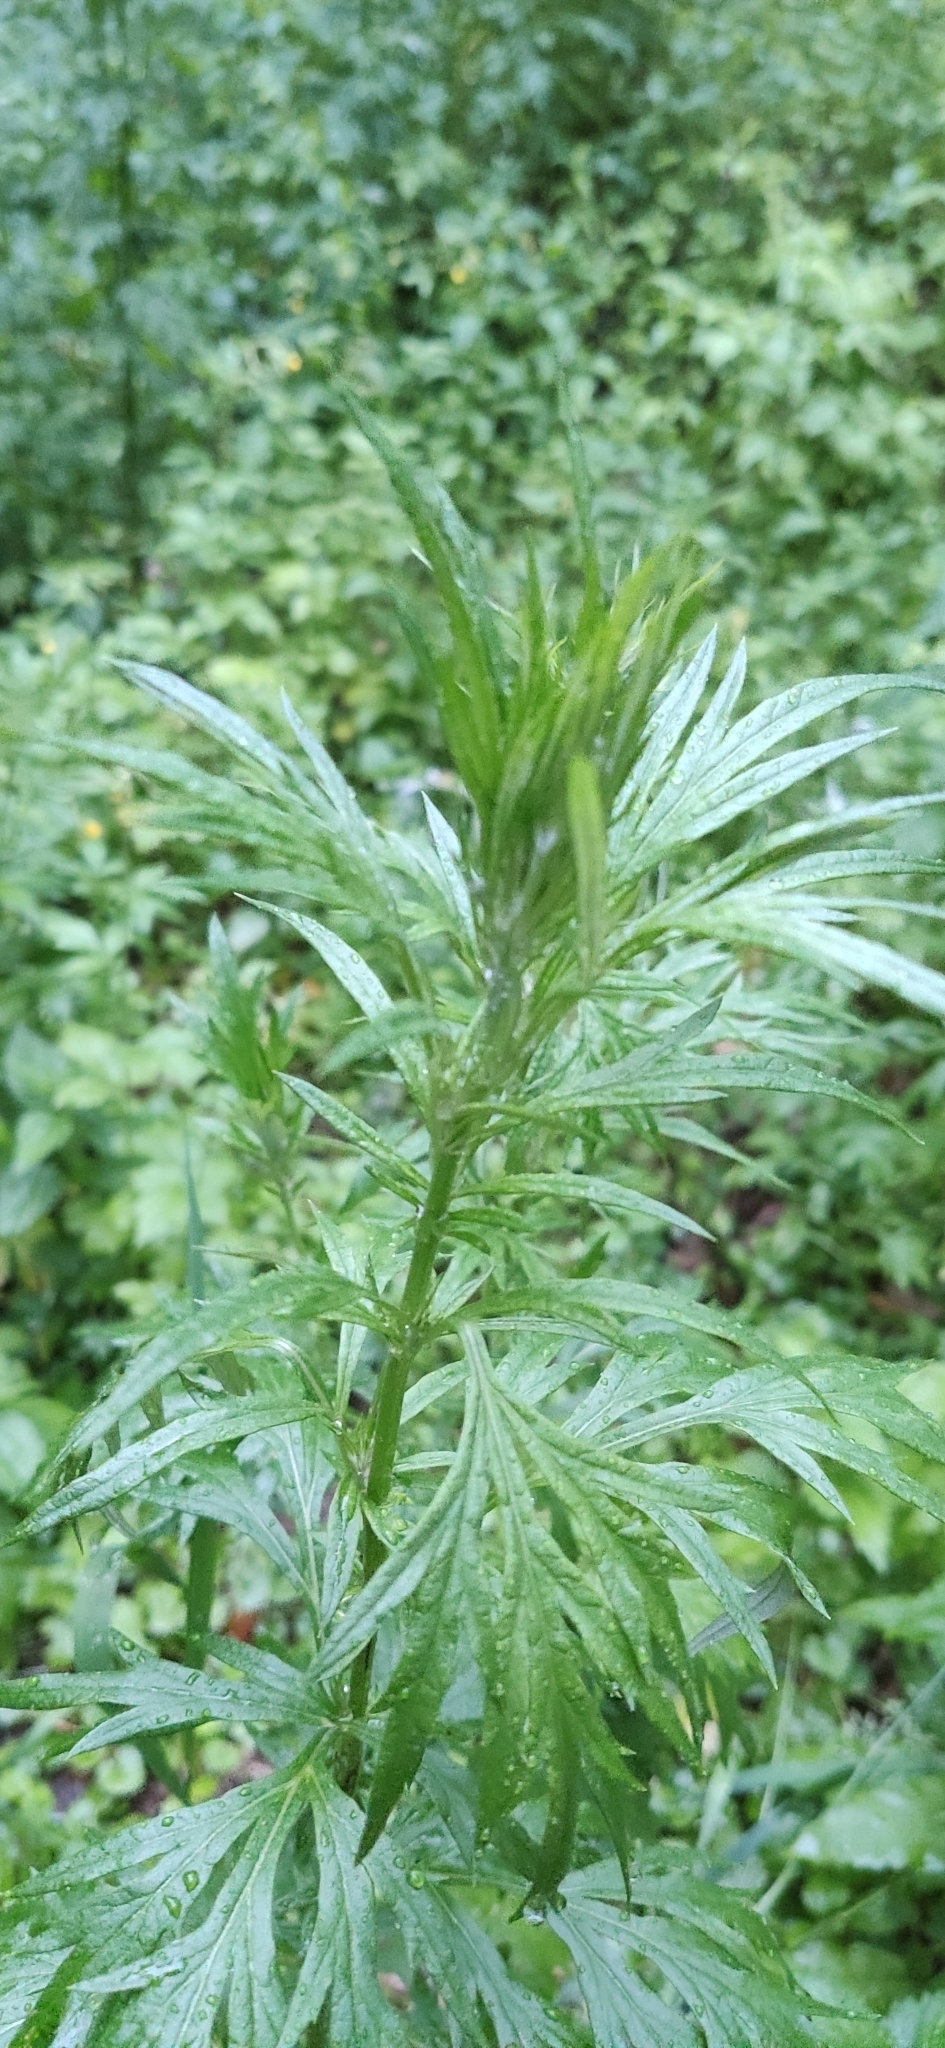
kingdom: Plantae
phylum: Tracheophyta
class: Magnoliopsida
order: Asterales
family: Asteraceae
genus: Artemisia
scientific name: Artemisia vulgaris
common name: Mugwort
